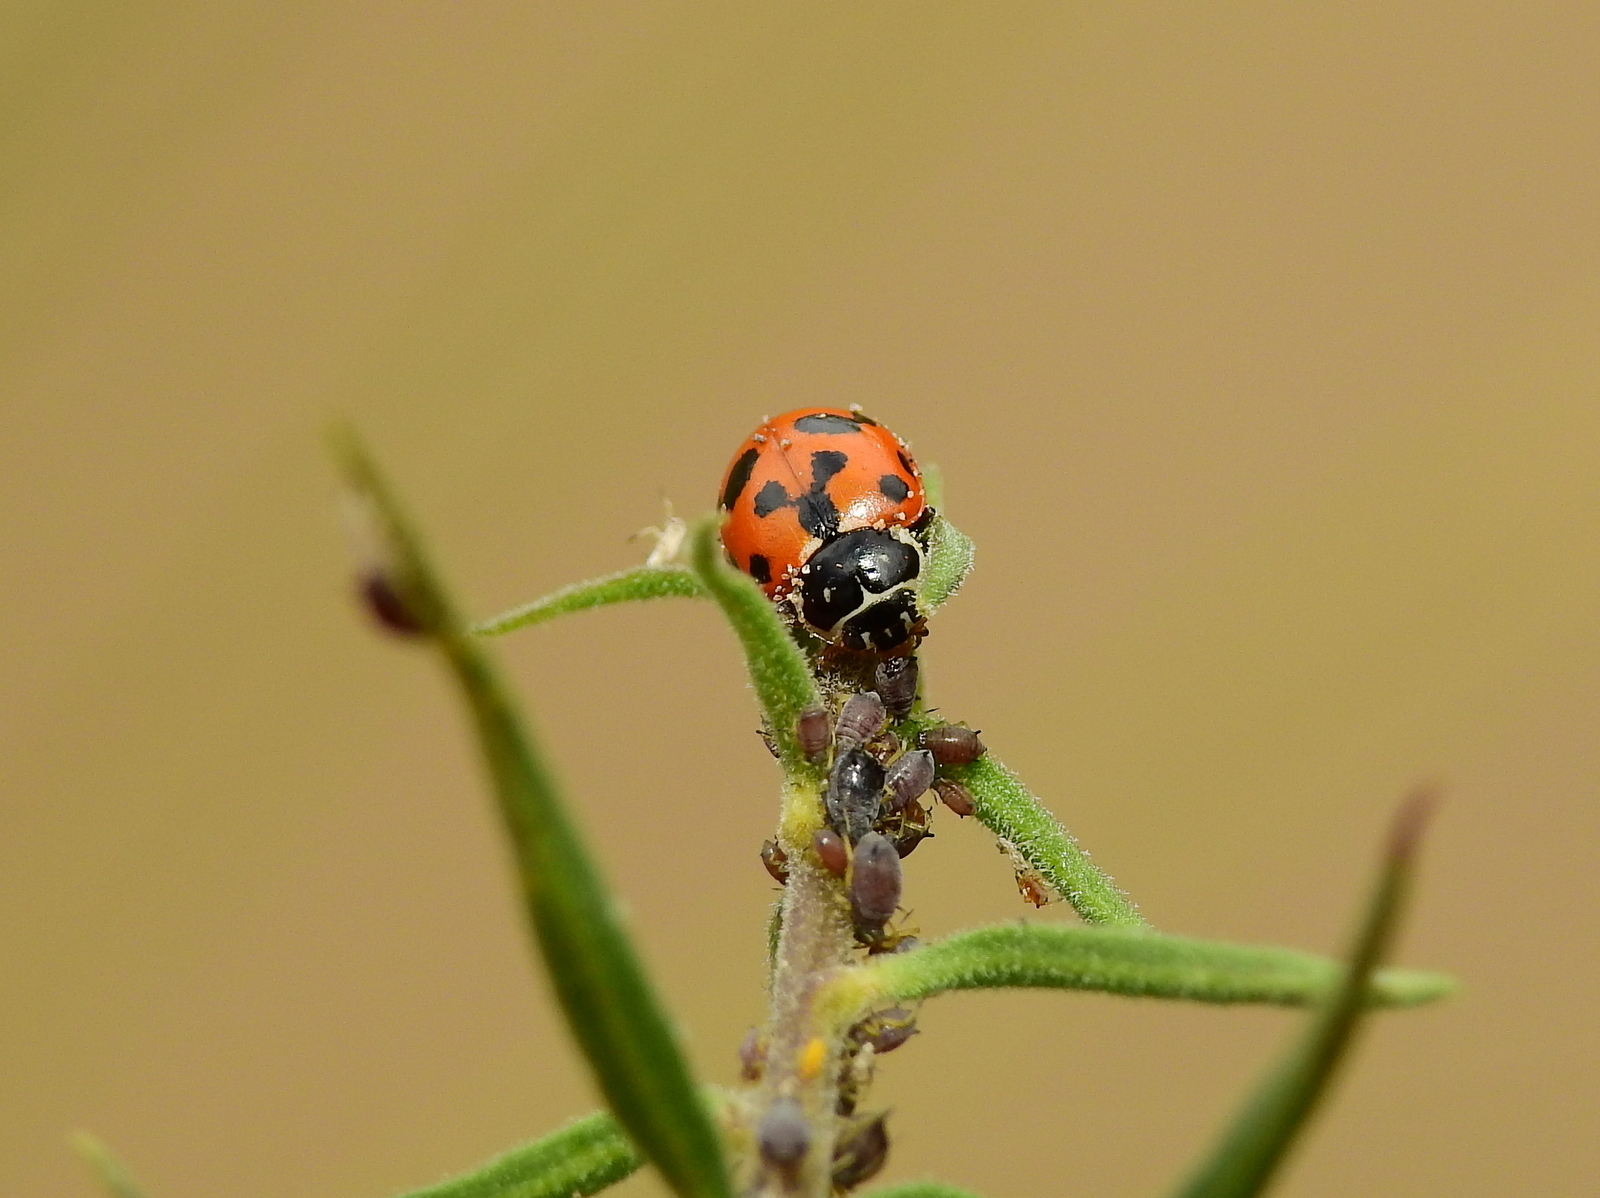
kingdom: Animalia
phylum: Arthropoda
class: Insecta
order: Coleoptera
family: Coccinellidae
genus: Hippodamia
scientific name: Hippodamia variegata
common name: Ladybird beetle
